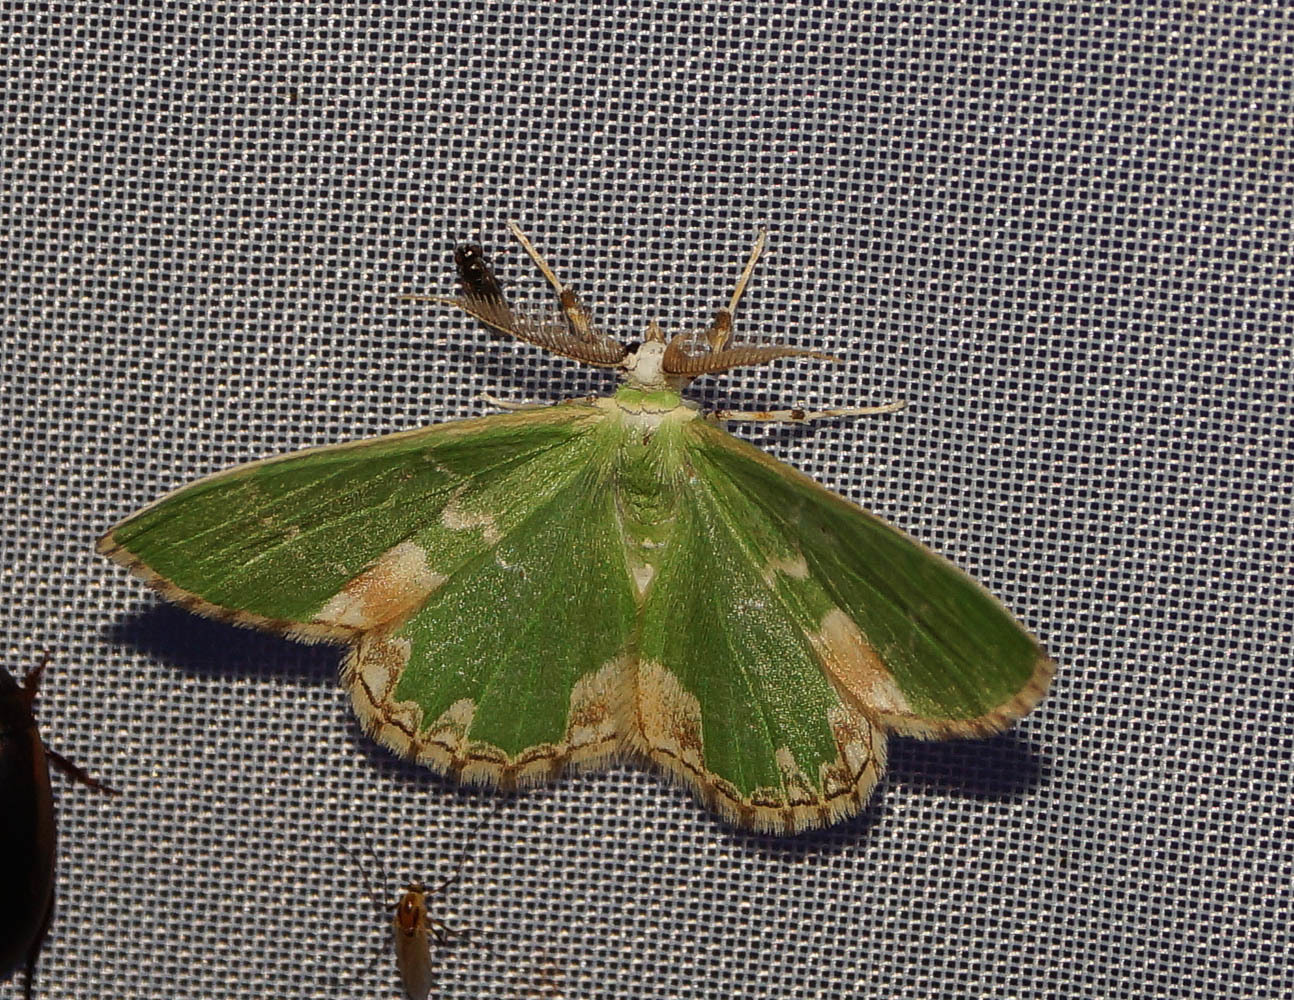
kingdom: Animalia
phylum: Arthropoda
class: Insecta
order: Lepidoptera
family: Geometridae
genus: Comibaena
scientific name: Comibaena bajularia
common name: Blotched emerald
